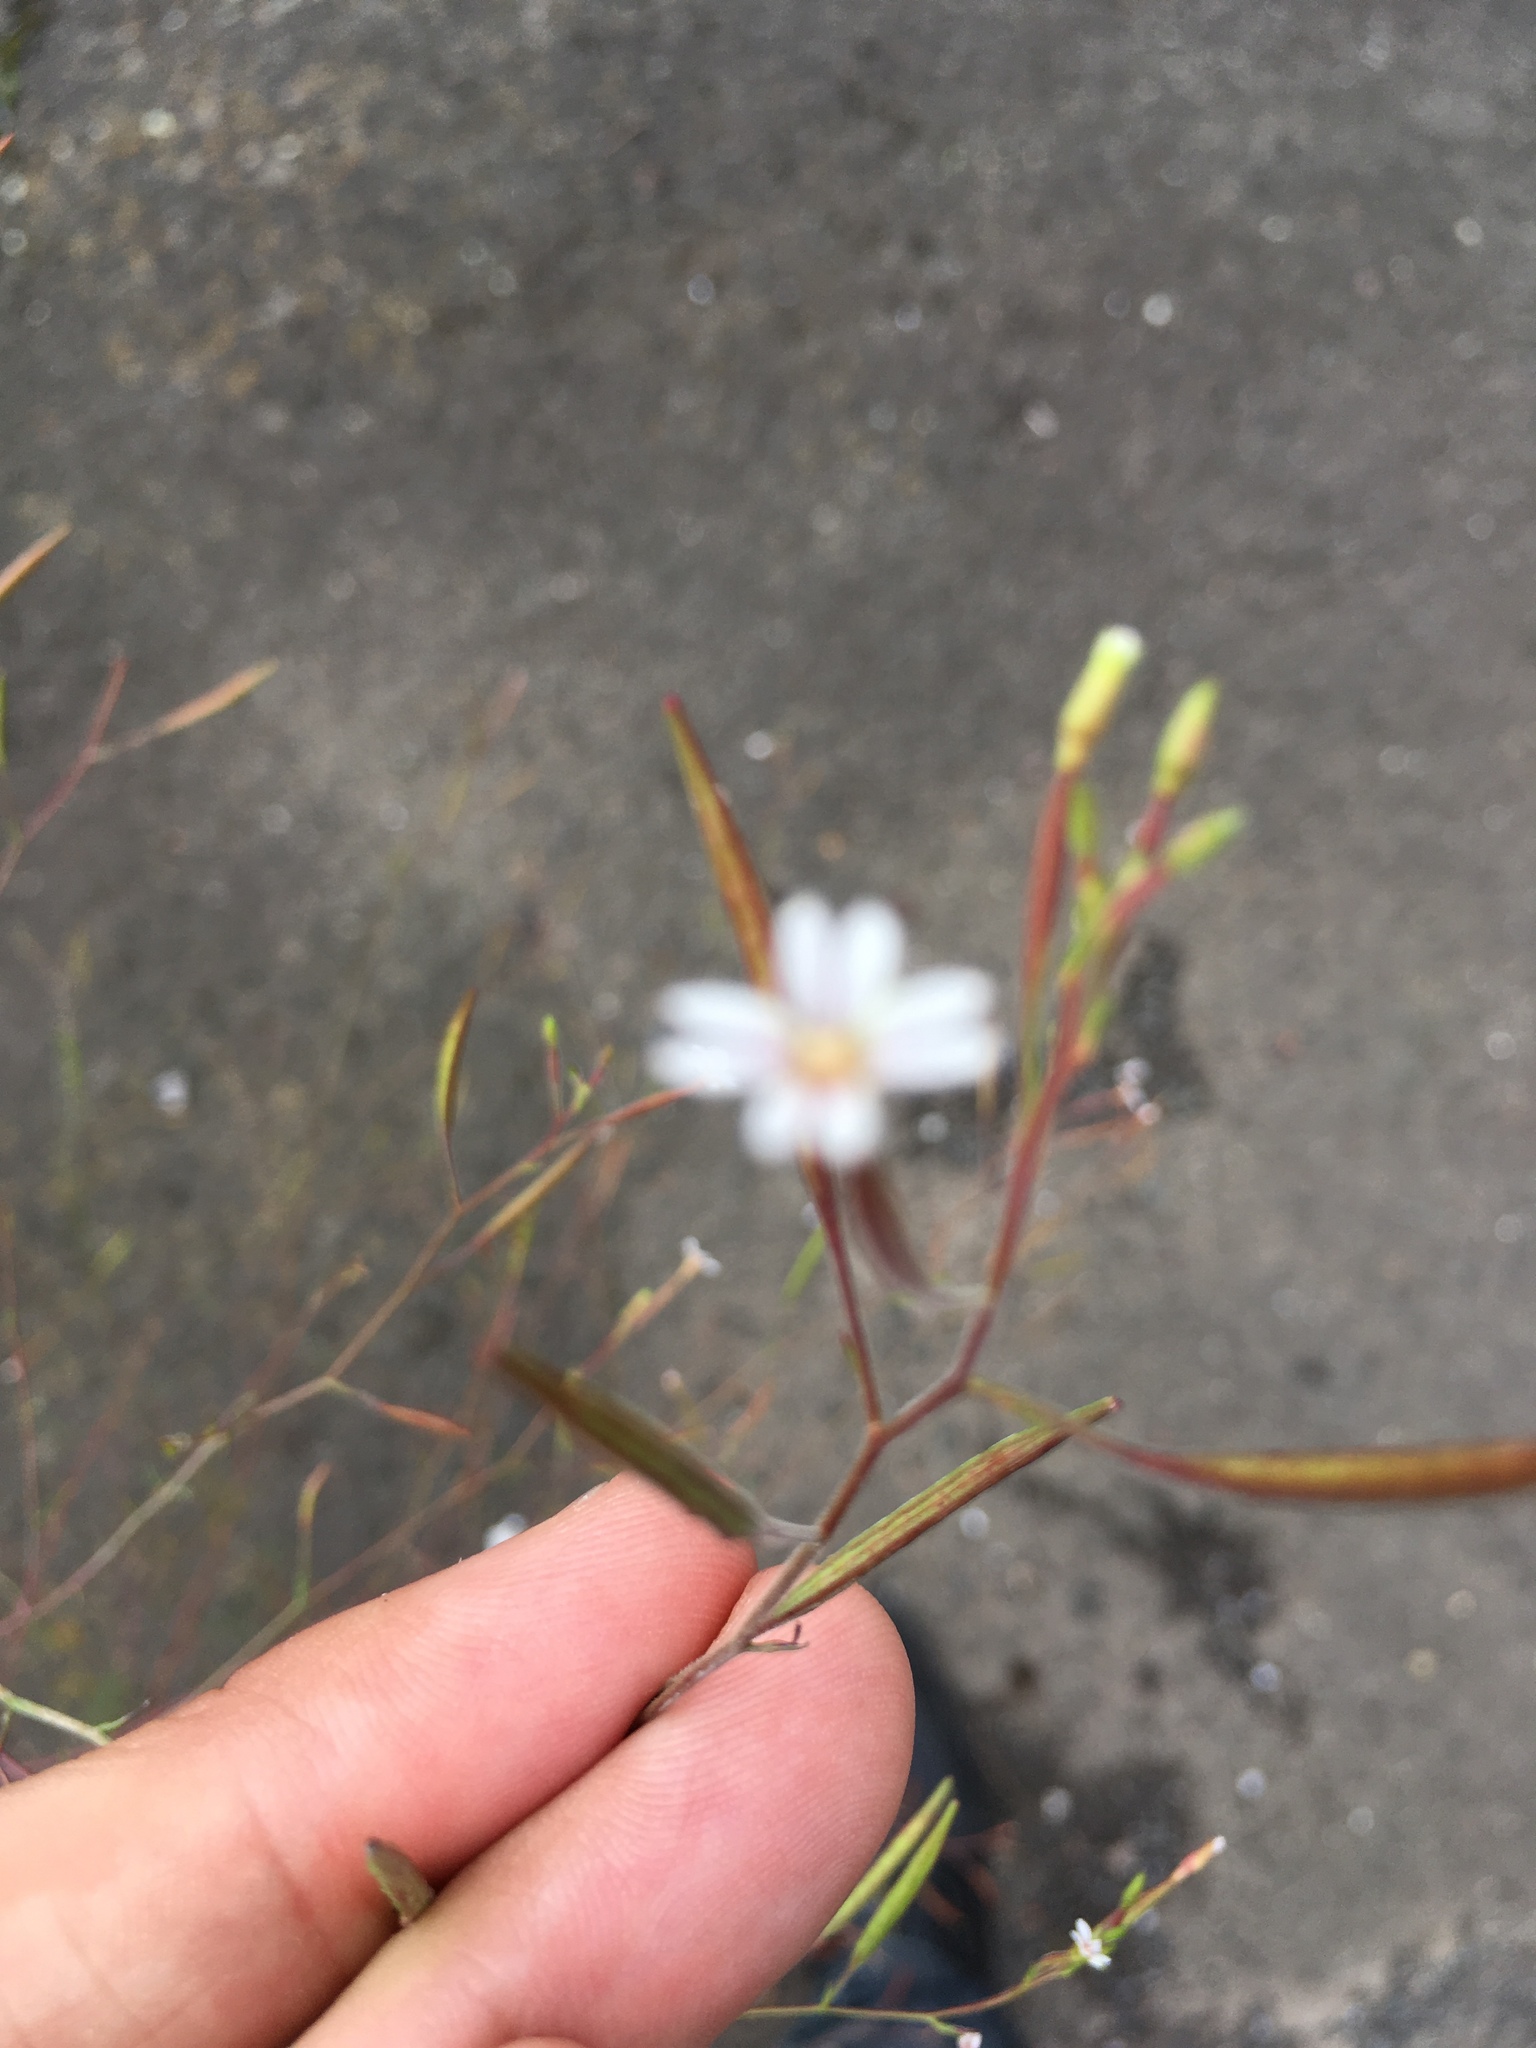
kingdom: Plantae
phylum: Tracheophyta
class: Magnoliopsida
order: Myrtales
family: Onagraceae
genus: Epilobium
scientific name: Epilobium brachycarpum
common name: Annual willowherb
